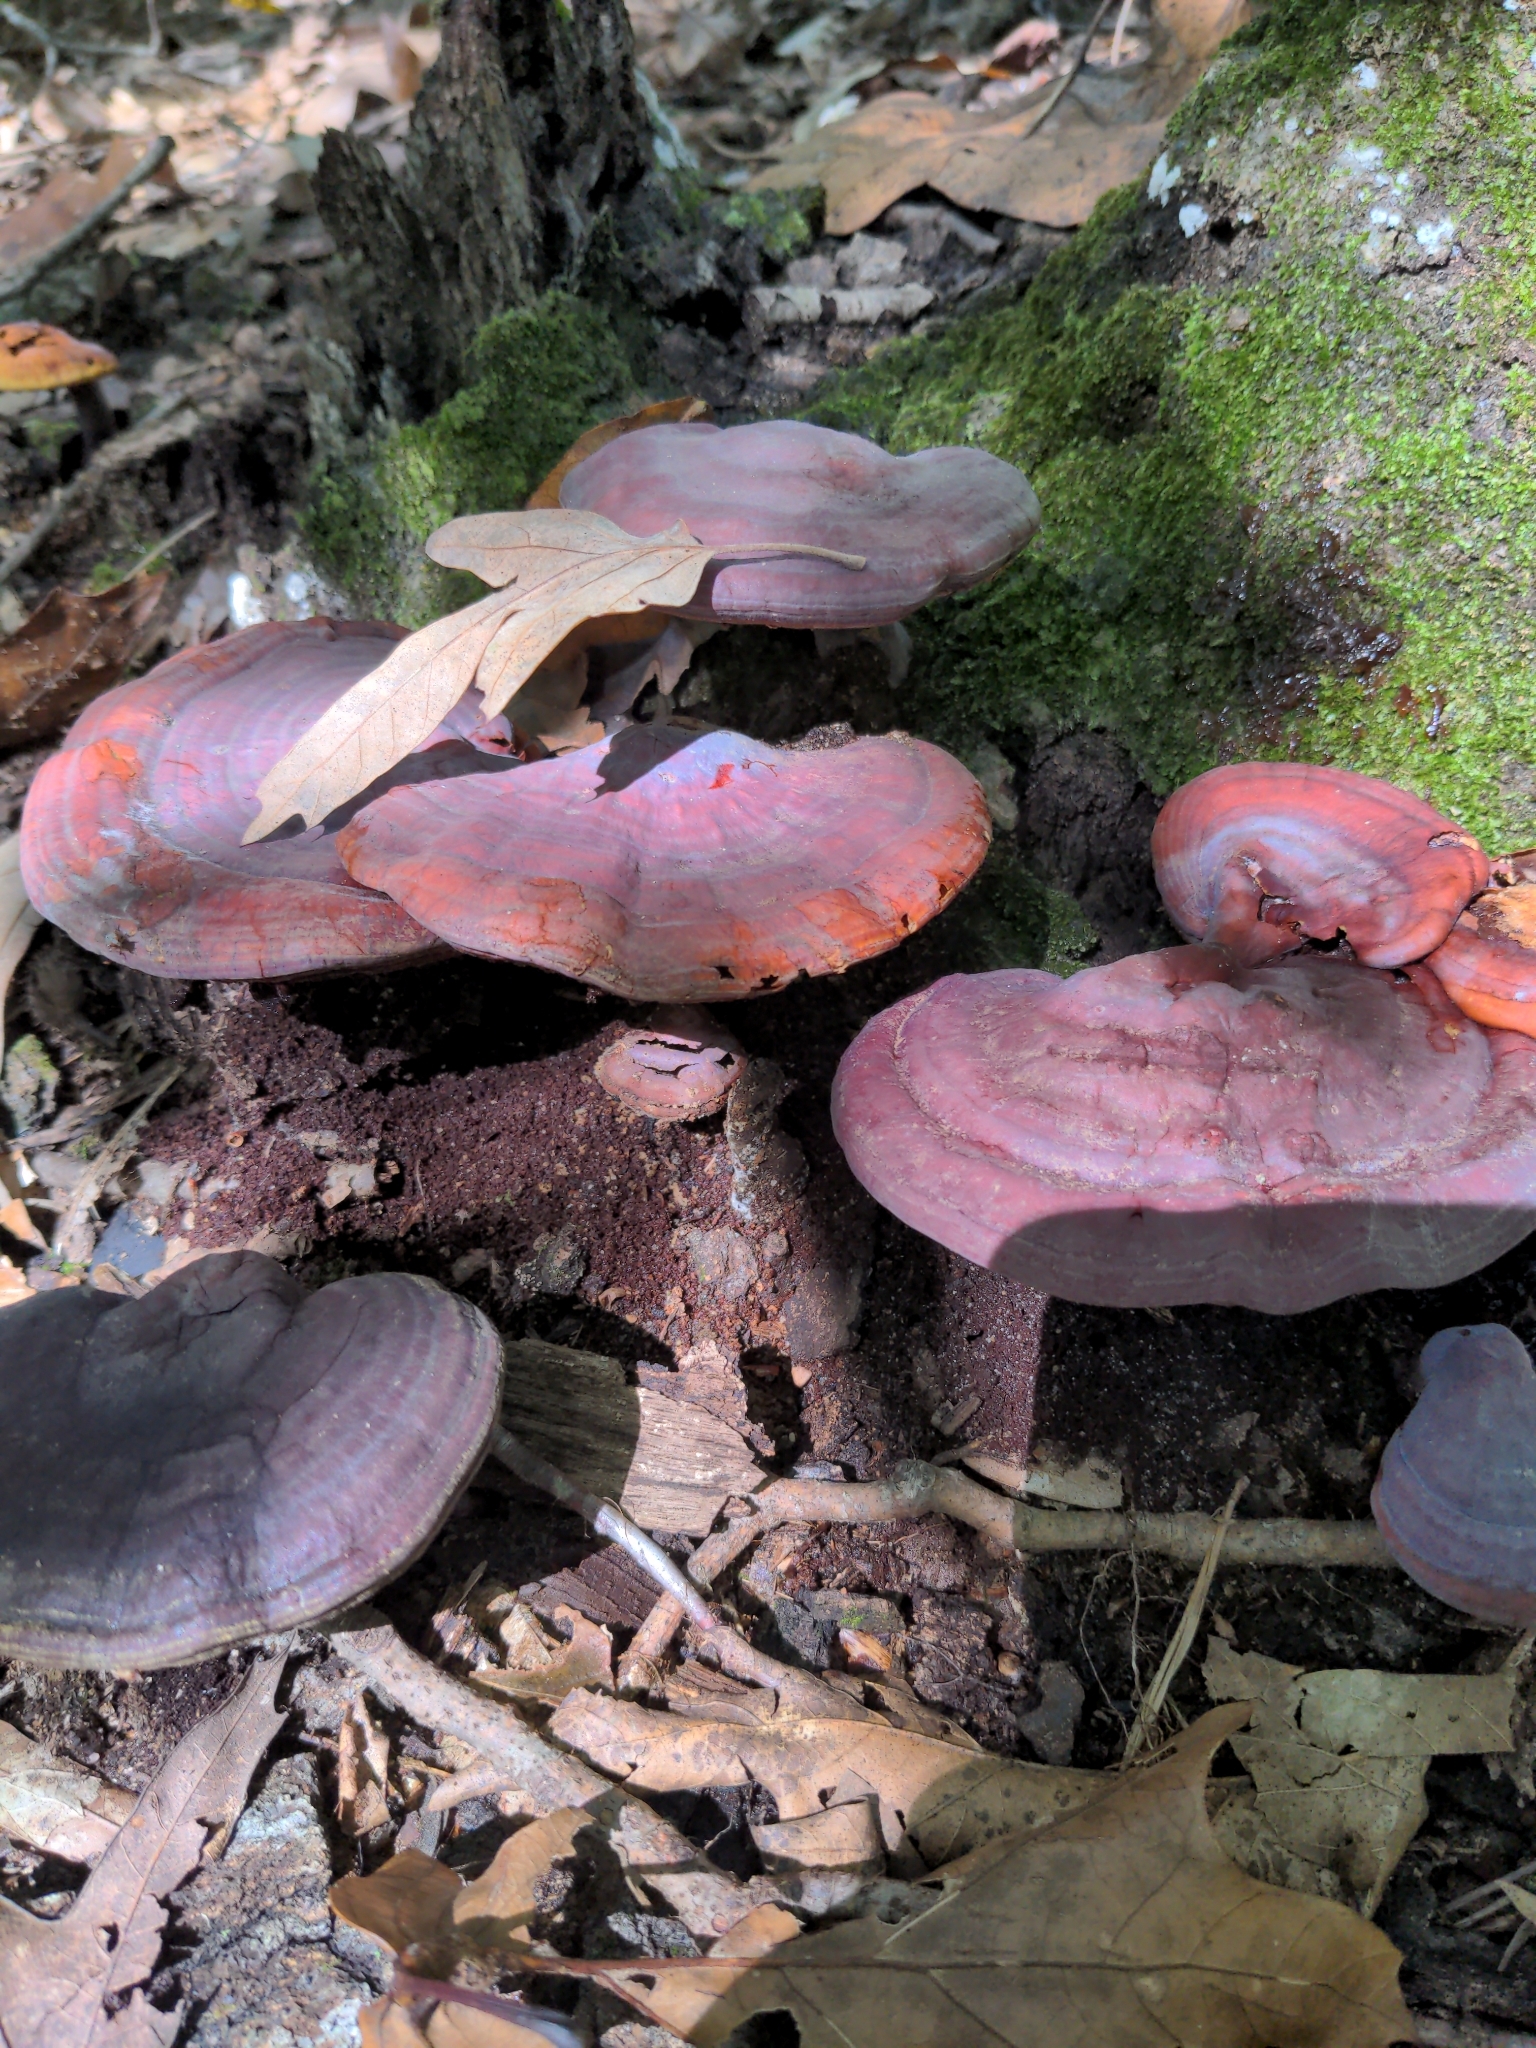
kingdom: Fungi
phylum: Basidiomycota
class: Agaricomycetes
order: Polyporales
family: Polyporaceae
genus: Ganoderma
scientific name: Ganoderma curtisii
